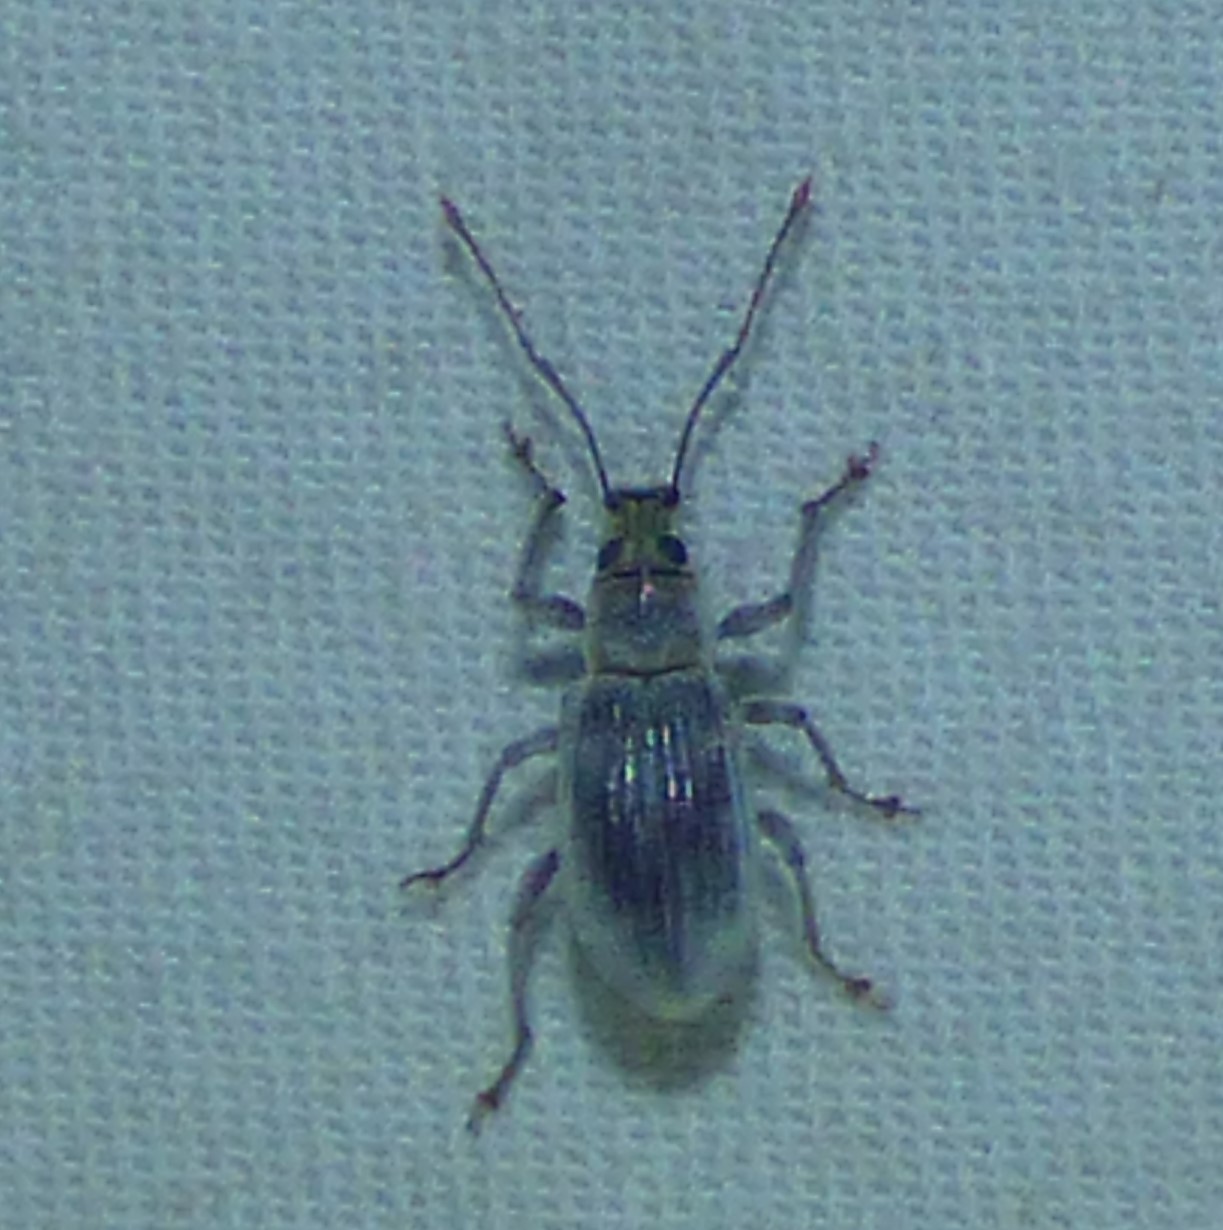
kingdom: Animalia
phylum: Arthropoda
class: Insecta
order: Coleoptera
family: Curculionidae
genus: Cyrtepistomus
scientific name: Cyrtepistomus castaneus
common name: Weevil
